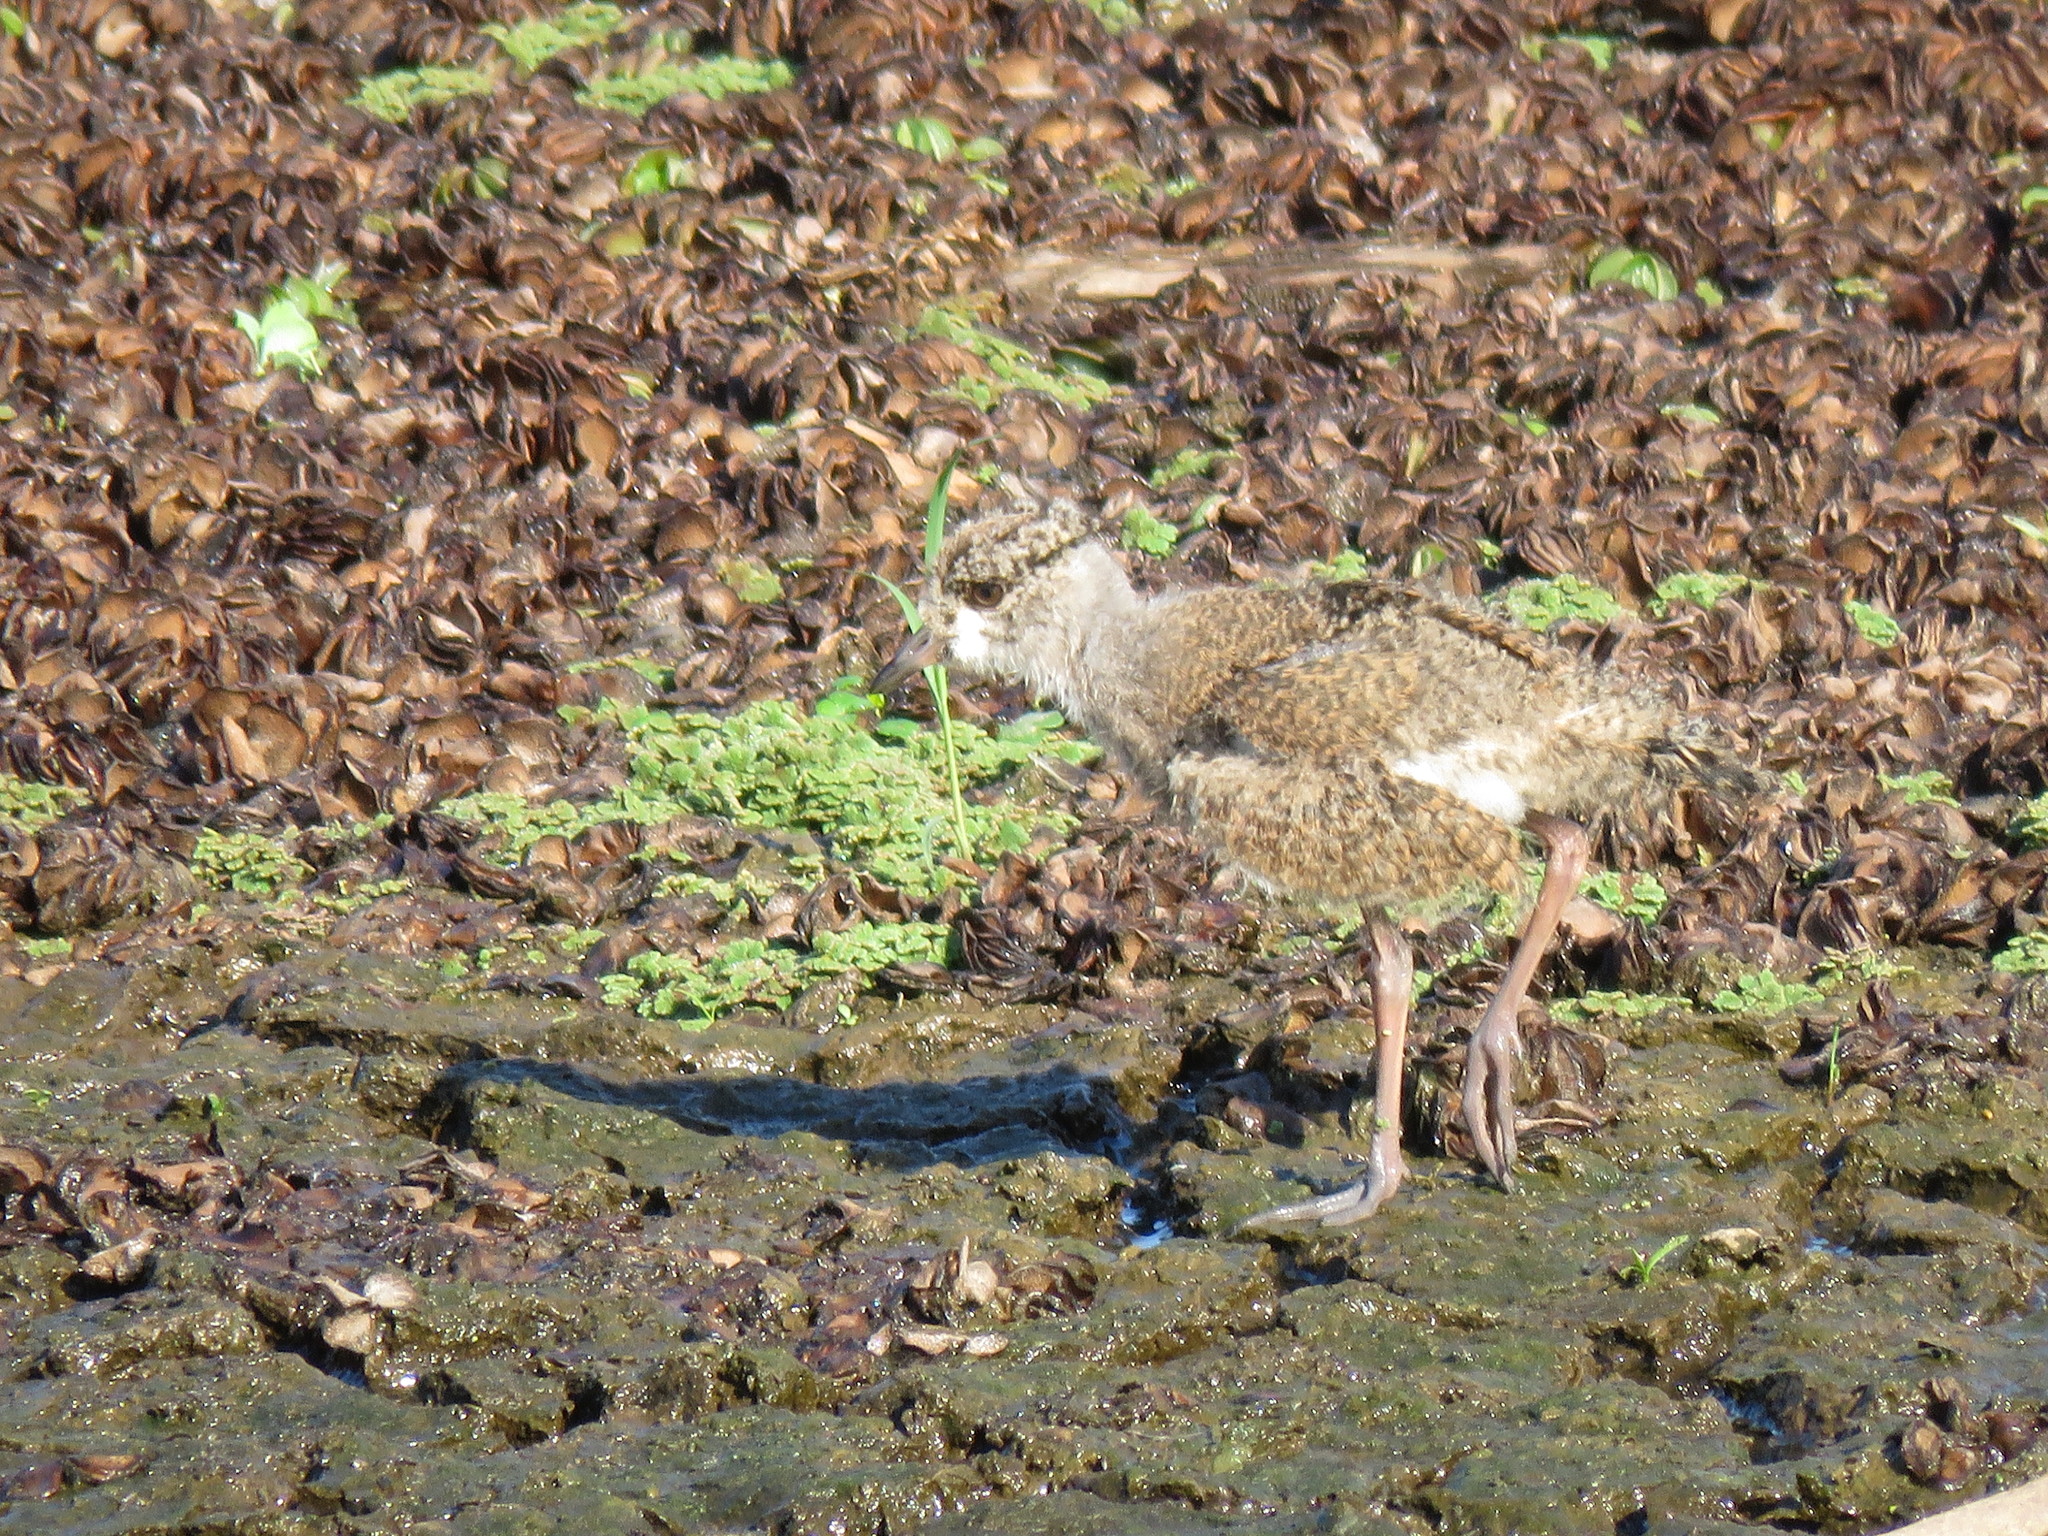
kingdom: Animalia
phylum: Chordata
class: Aves
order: Charadriiformes
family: Charadriidae
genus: Vanellus
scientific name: Vanellus chilensis
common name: Southern lapwing
